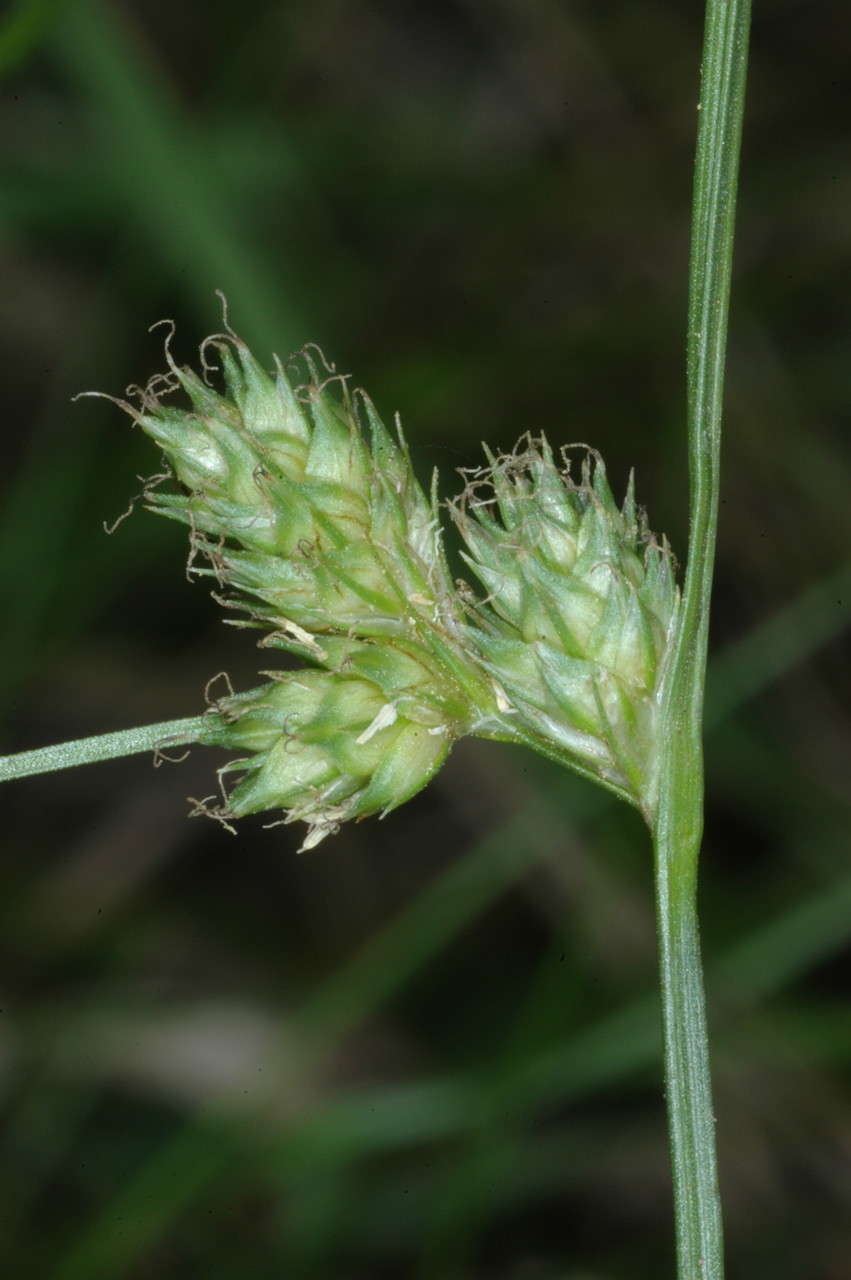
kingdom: Plantae
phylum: Tracheophyta
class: Liliopsida
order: Poales
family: Cyperaceae
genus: Carex
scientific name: Carex inversa
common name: Knob sedge
